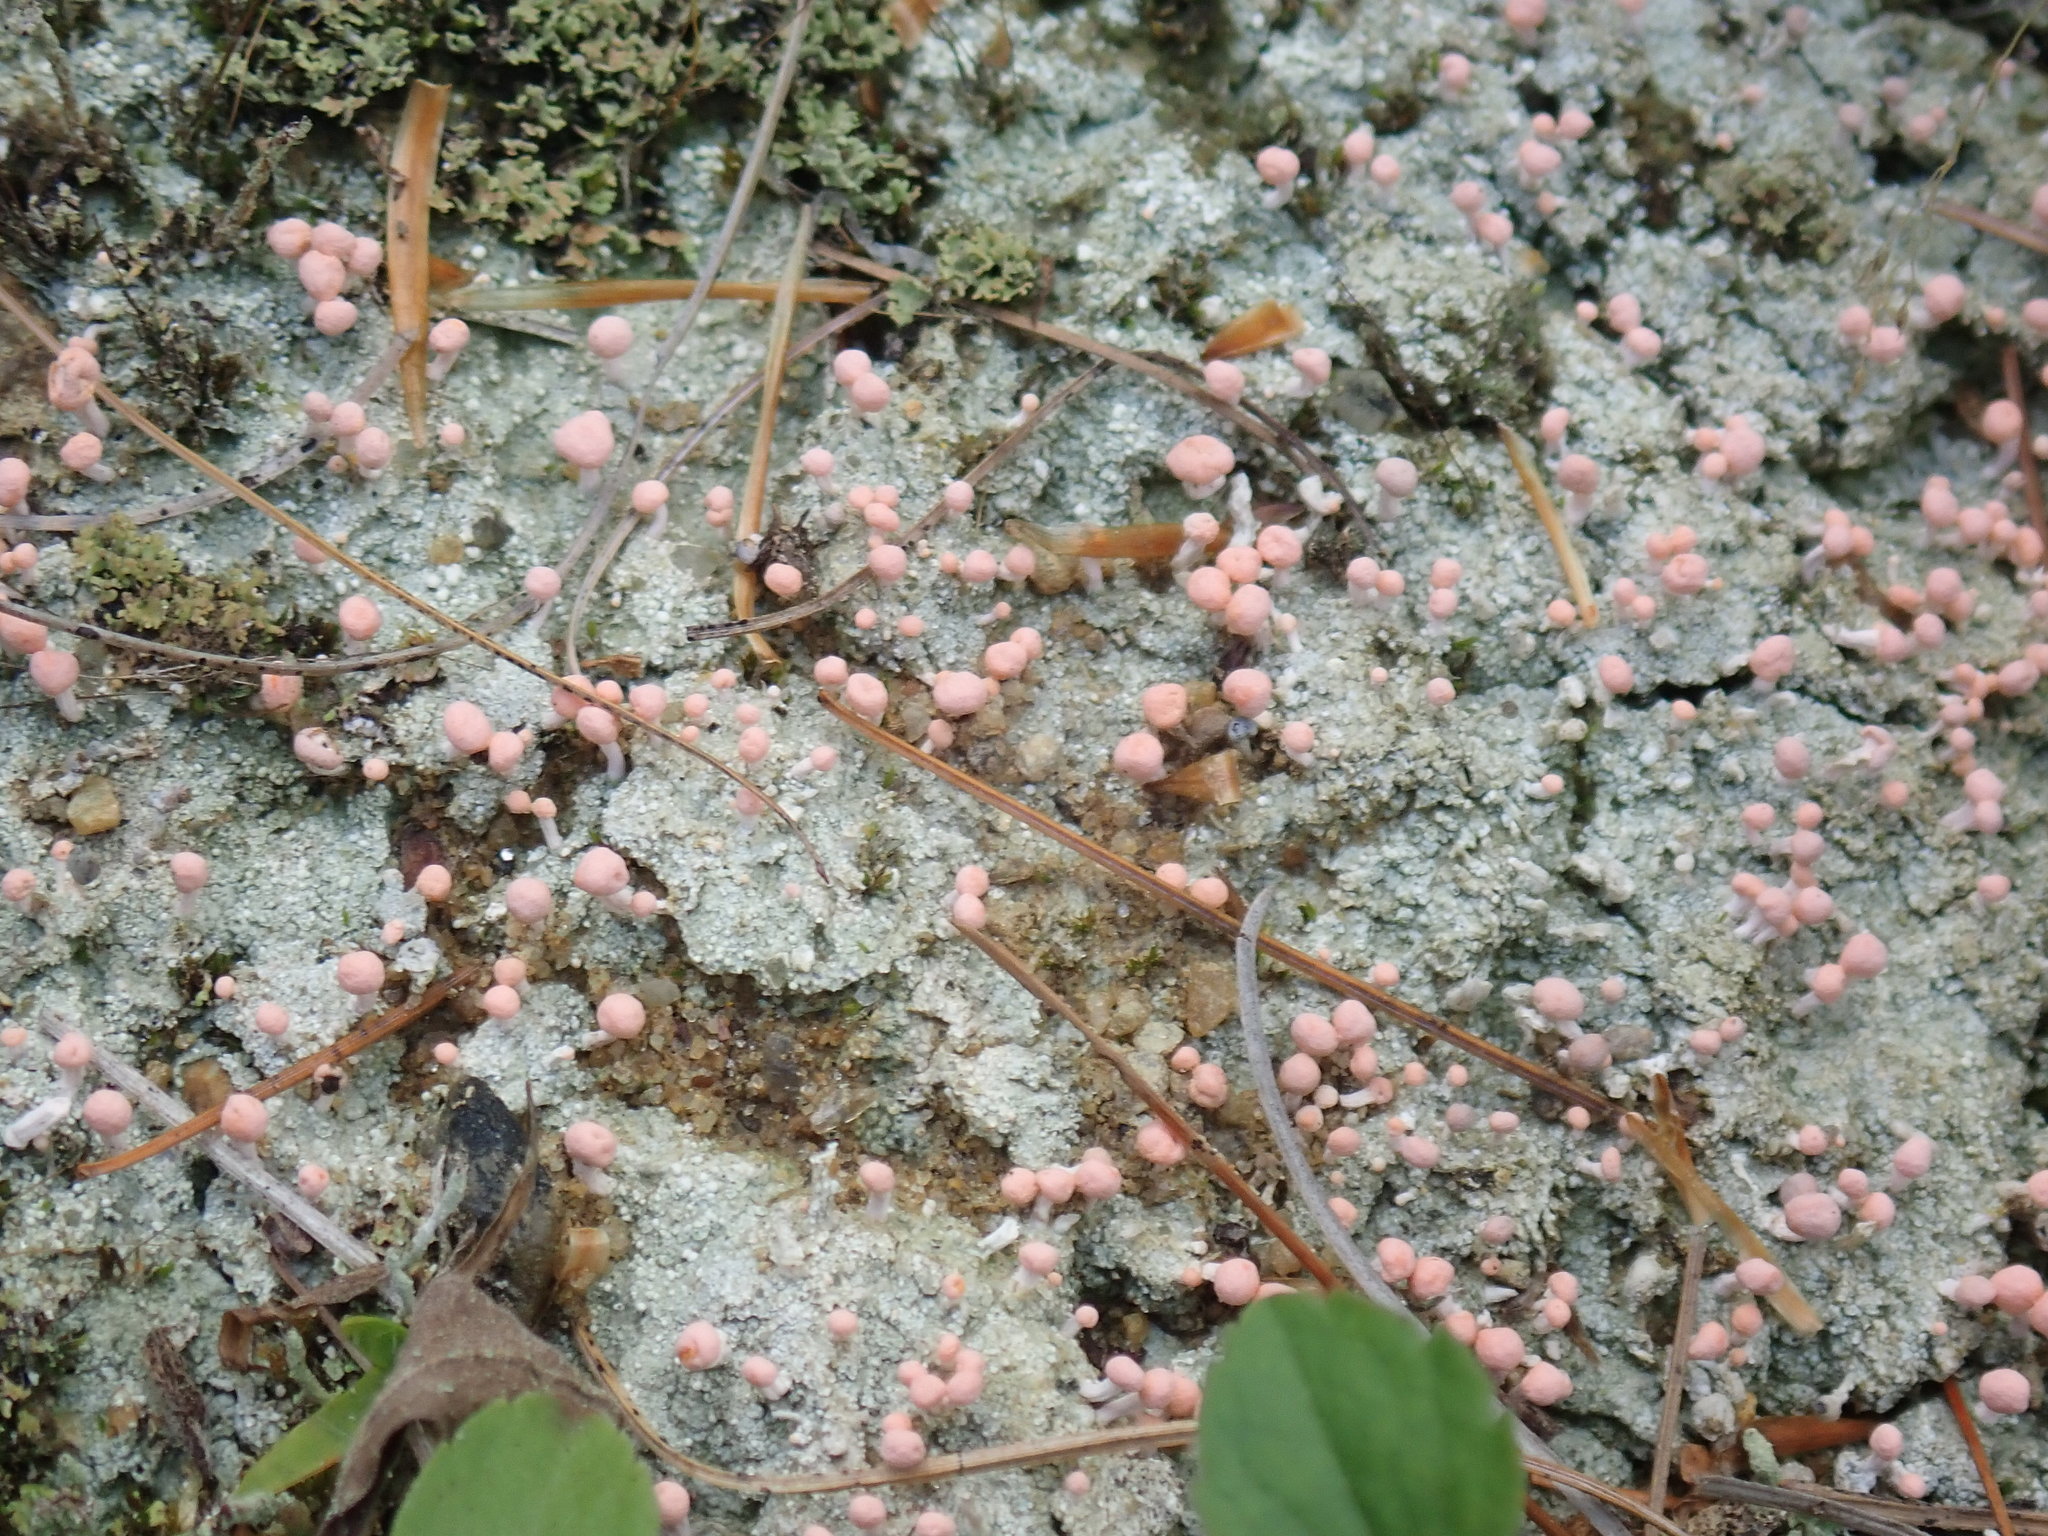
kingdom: Fungi
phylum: Ascomycota
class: Lecanoromycetes
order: Pertusariales
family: Icmadophilaceae
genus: Dibaeis
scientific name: Dibaeis baeomyces
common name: Pink earth lichen
